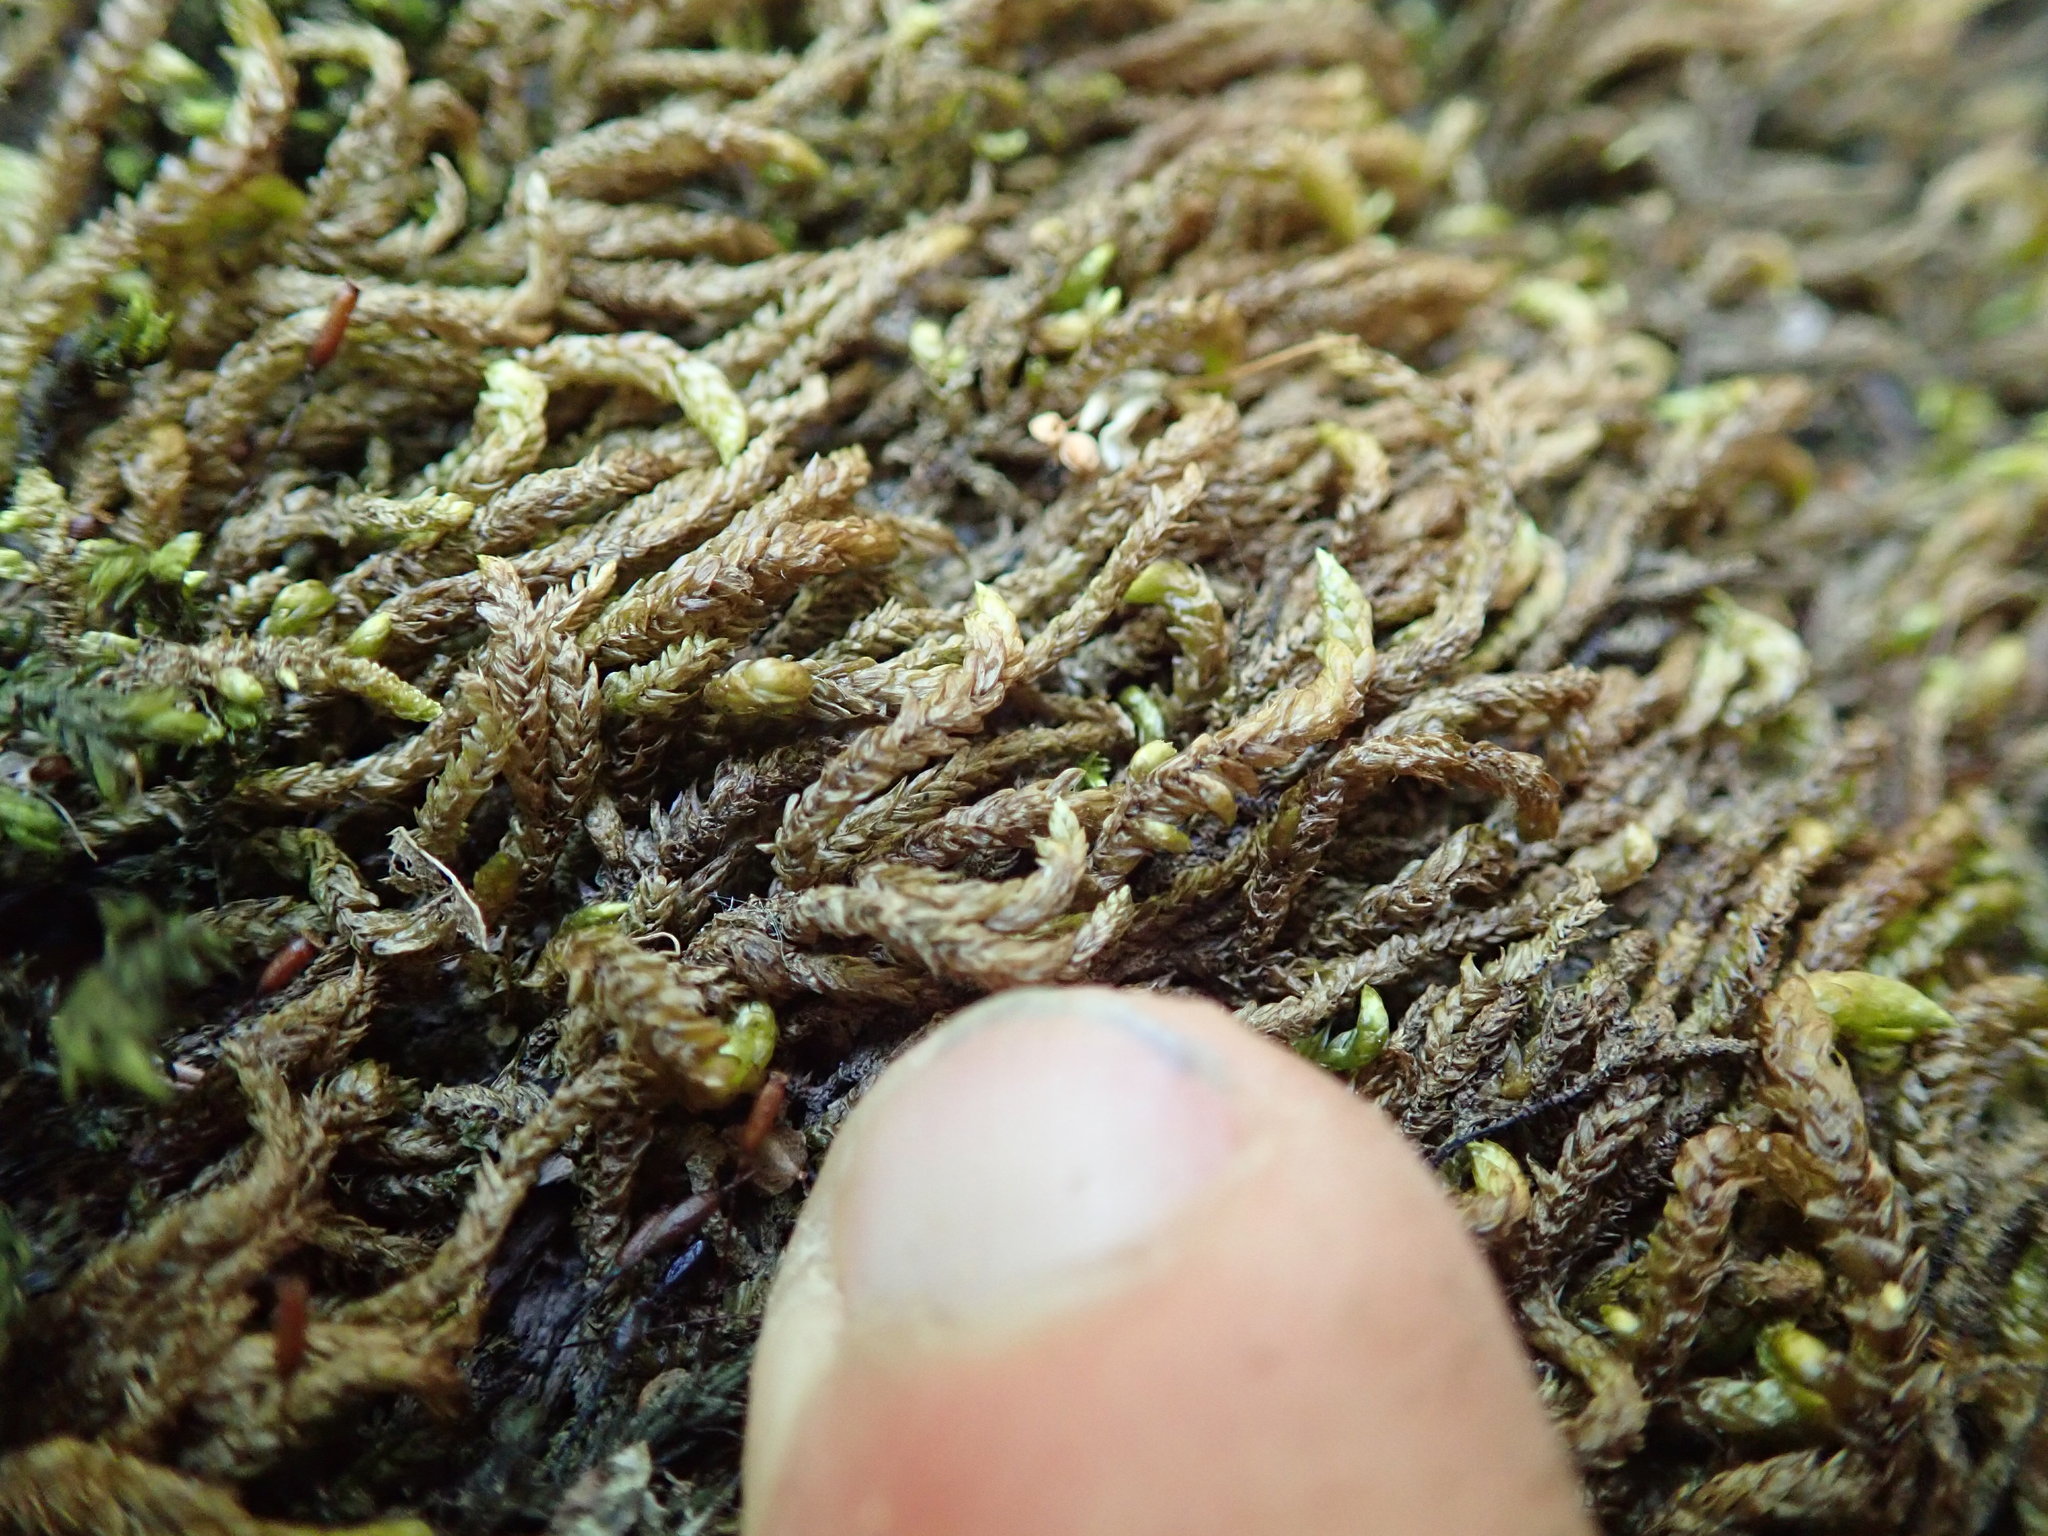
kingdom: Plantae
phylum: Bryophyta
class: Bryopsida
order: Hypnales
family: Brachytheciaceae
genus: Scleropodium
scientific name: Scleropodium obtusifolium
